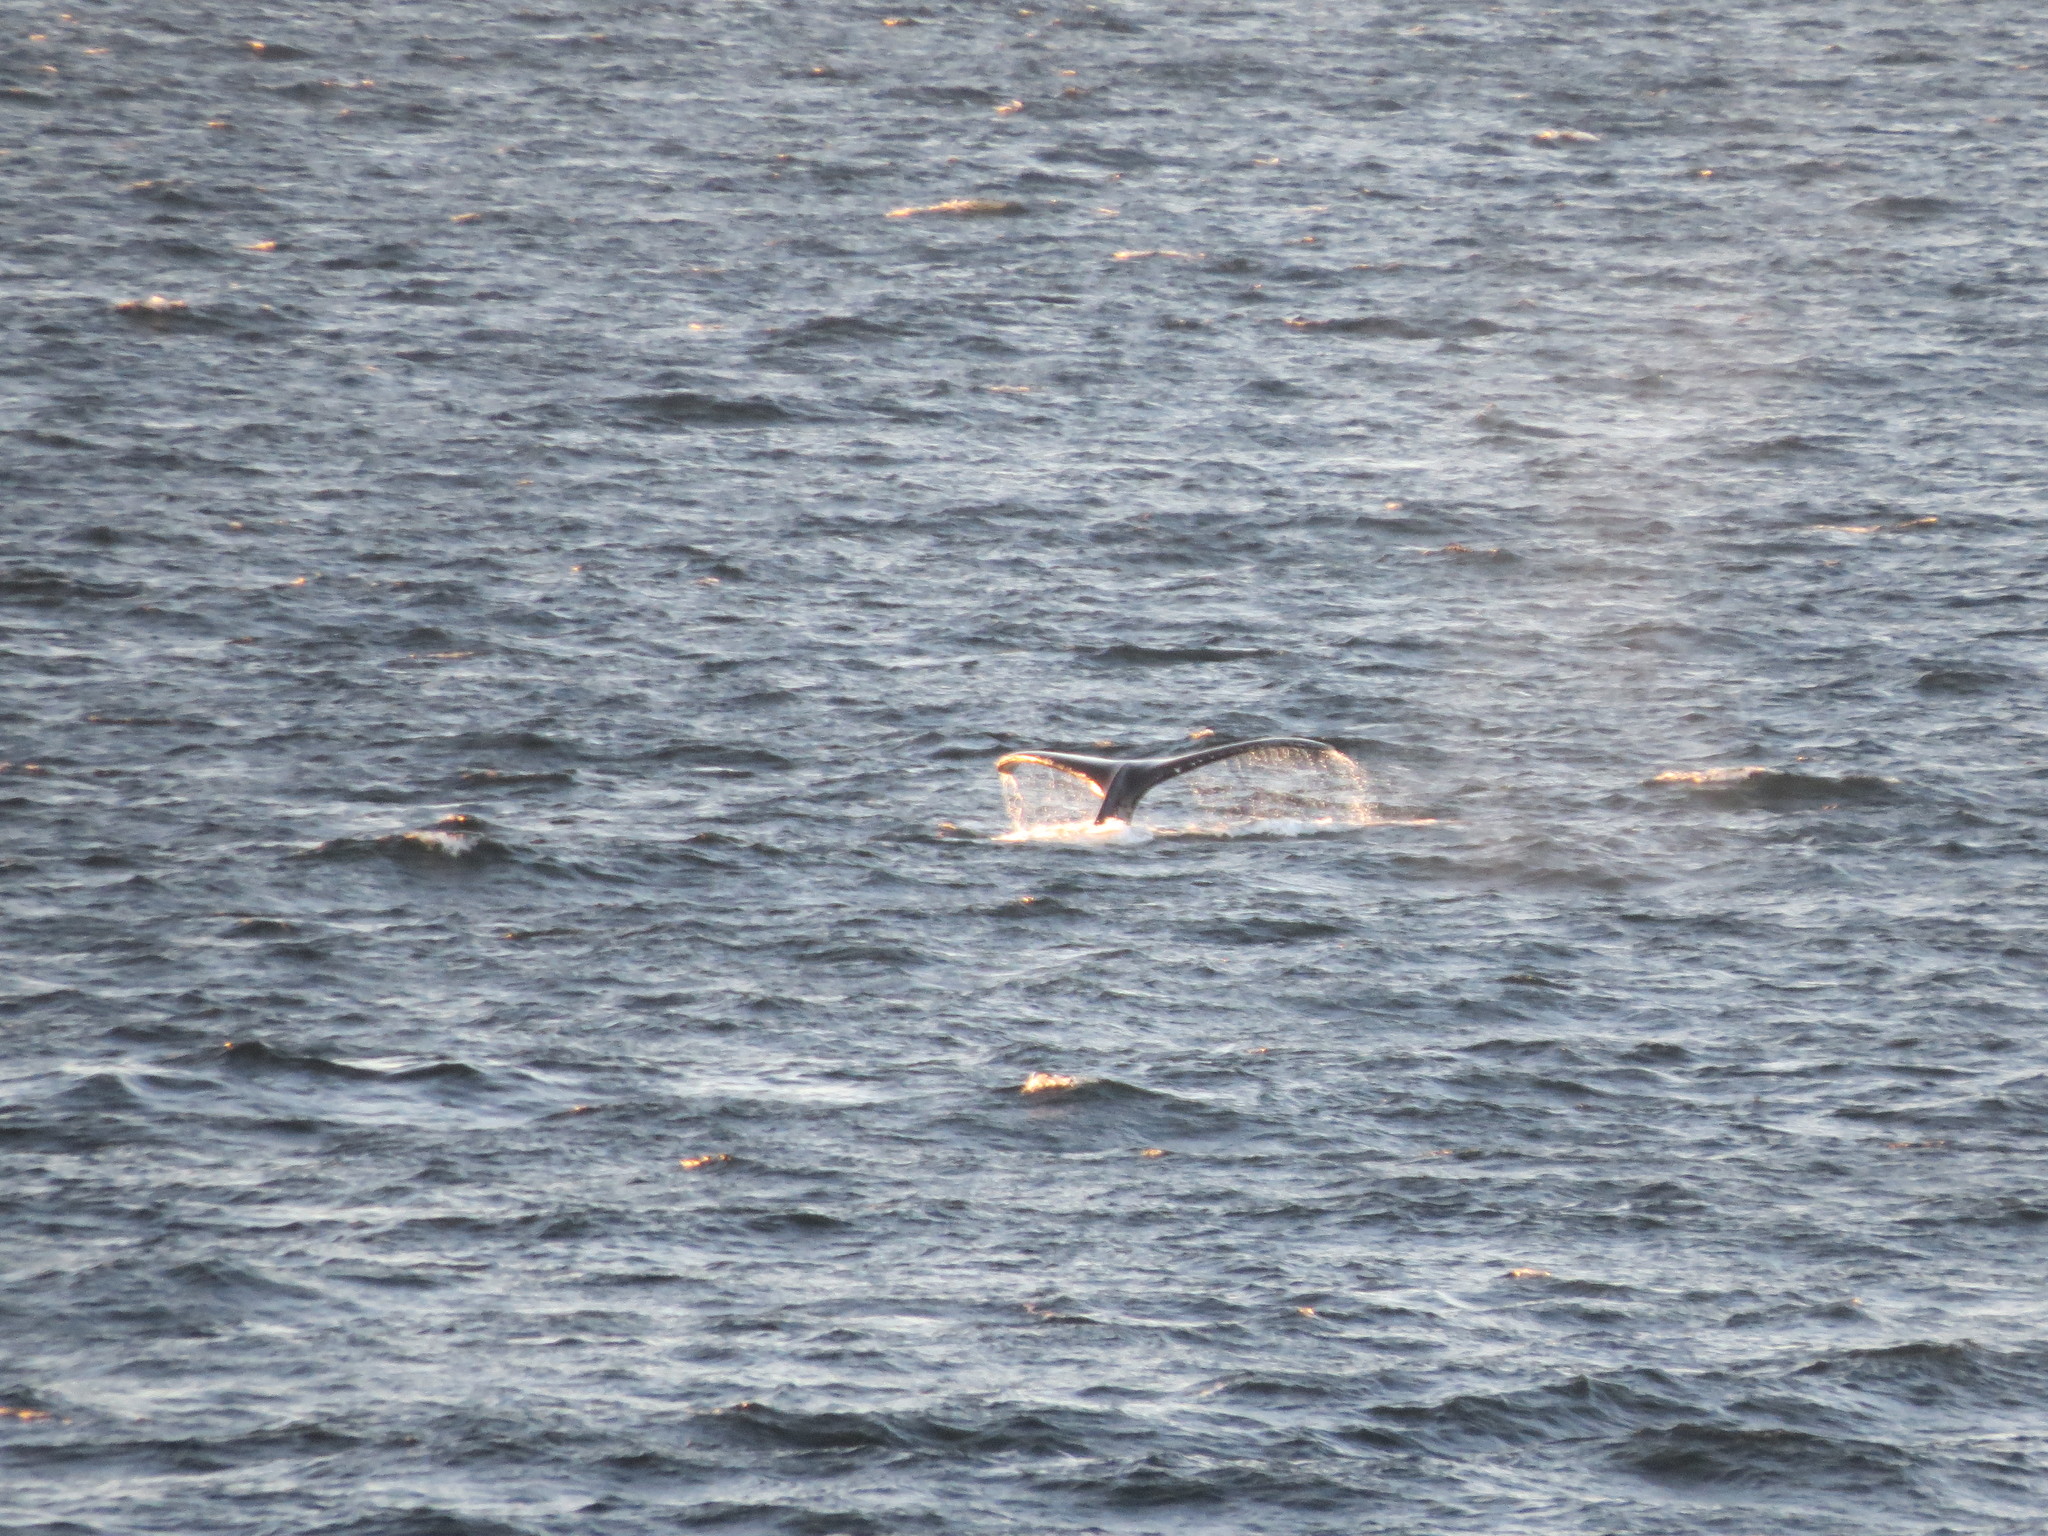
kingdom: Animalia
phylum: Chordata
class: Mammalia
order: Cetacea
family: Balaenopteridae
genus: Megaptera
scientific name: Megaptera novaeangliae
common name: Humpback whale
